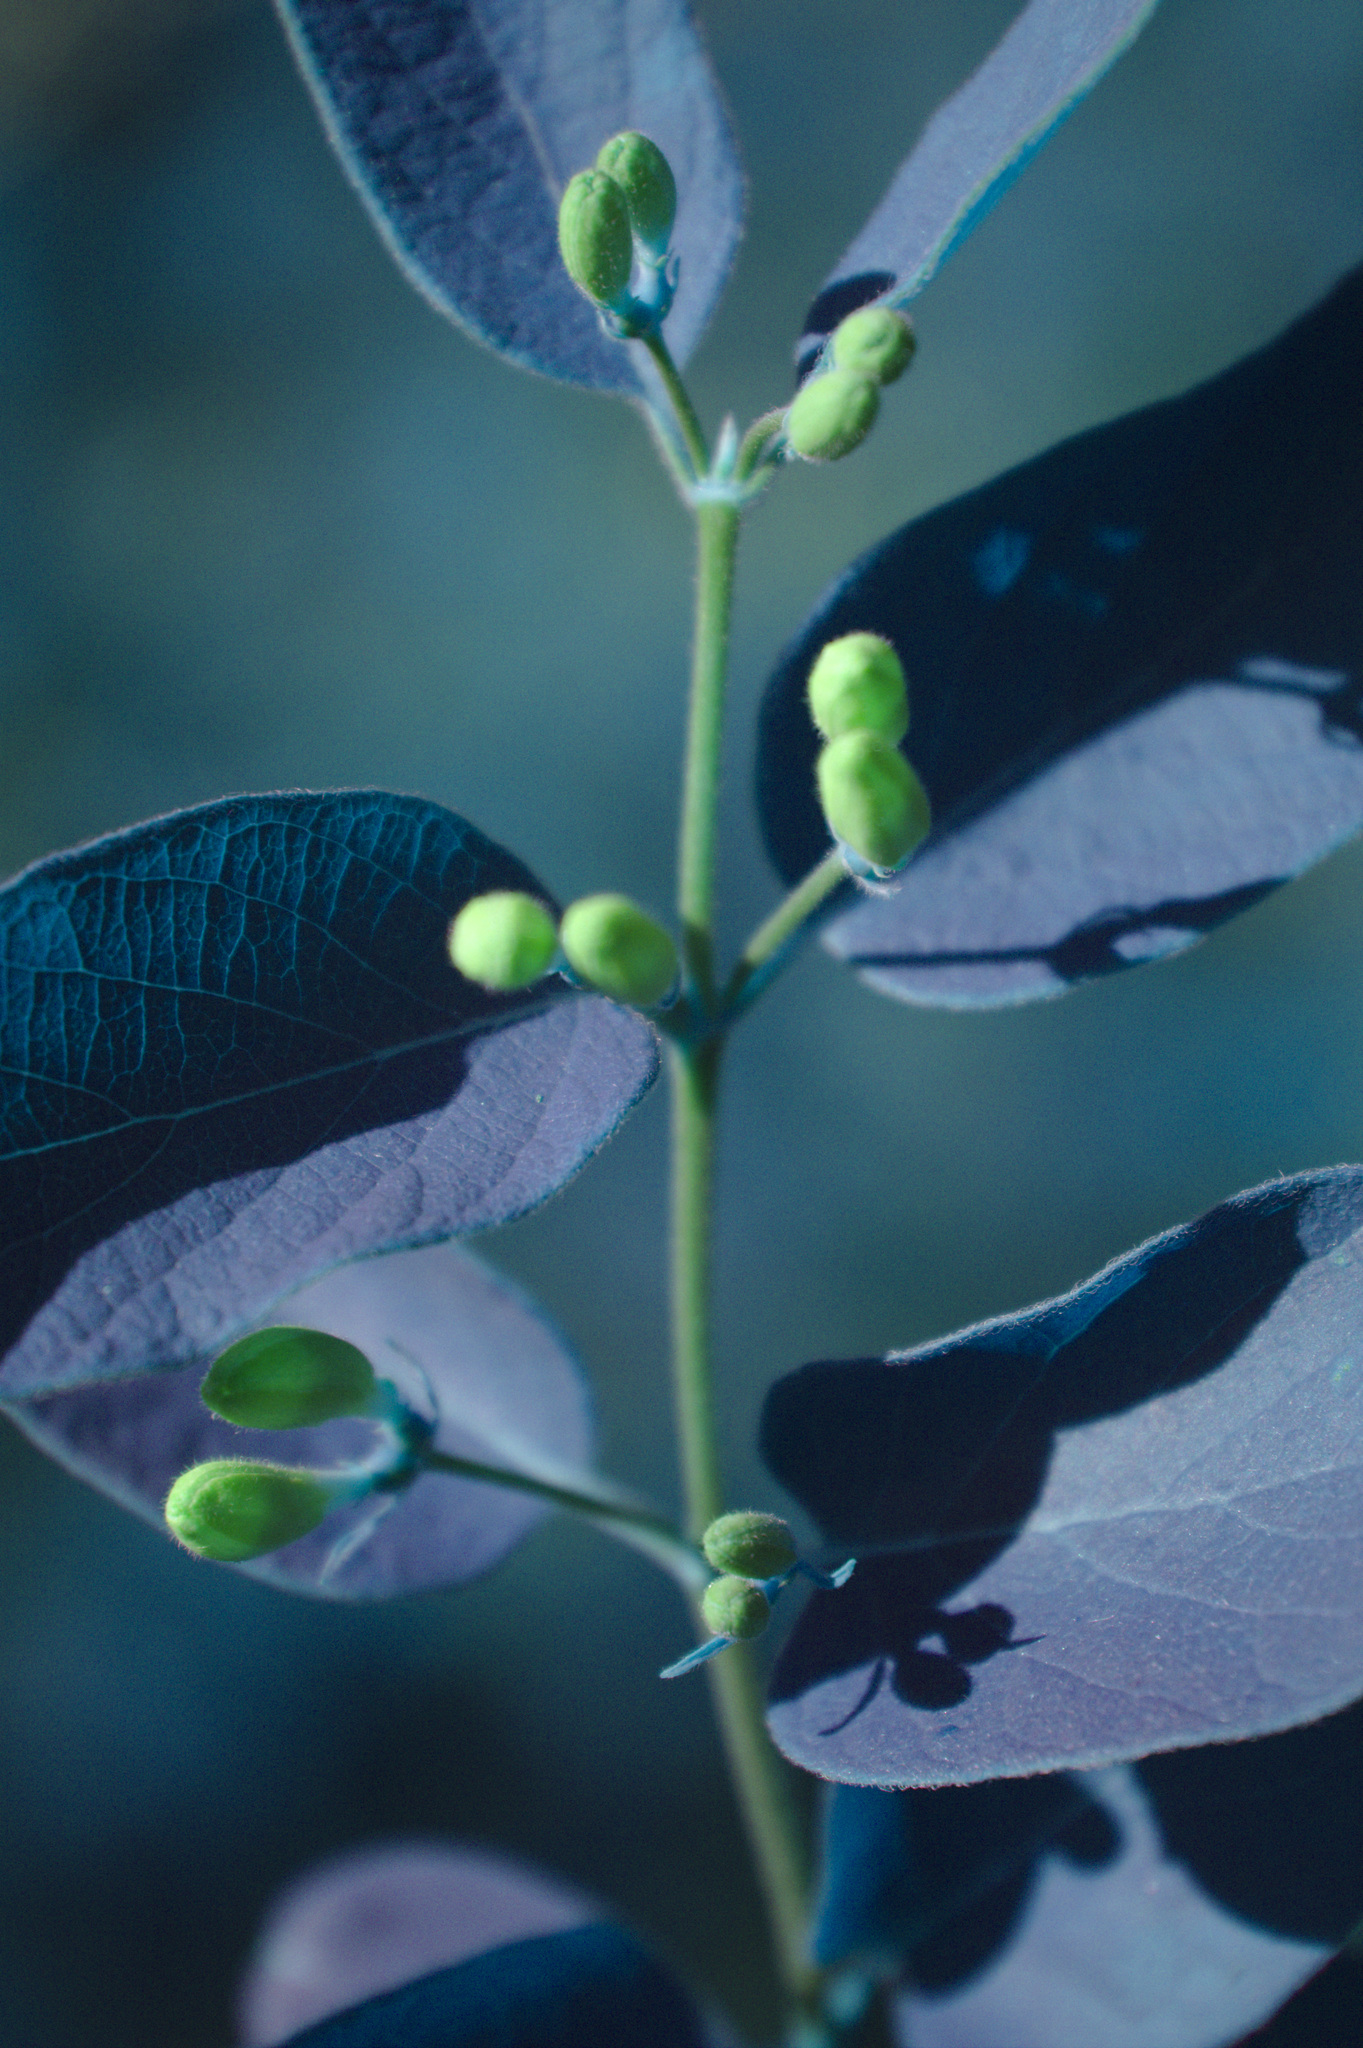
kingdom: Plantae
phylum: Tracheophyta
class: Magnoliopsida
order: Dipsacales
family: Caprifoliaceae
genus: Lonicera
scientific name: Lonicera bella
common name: Bell's honeysuckle
